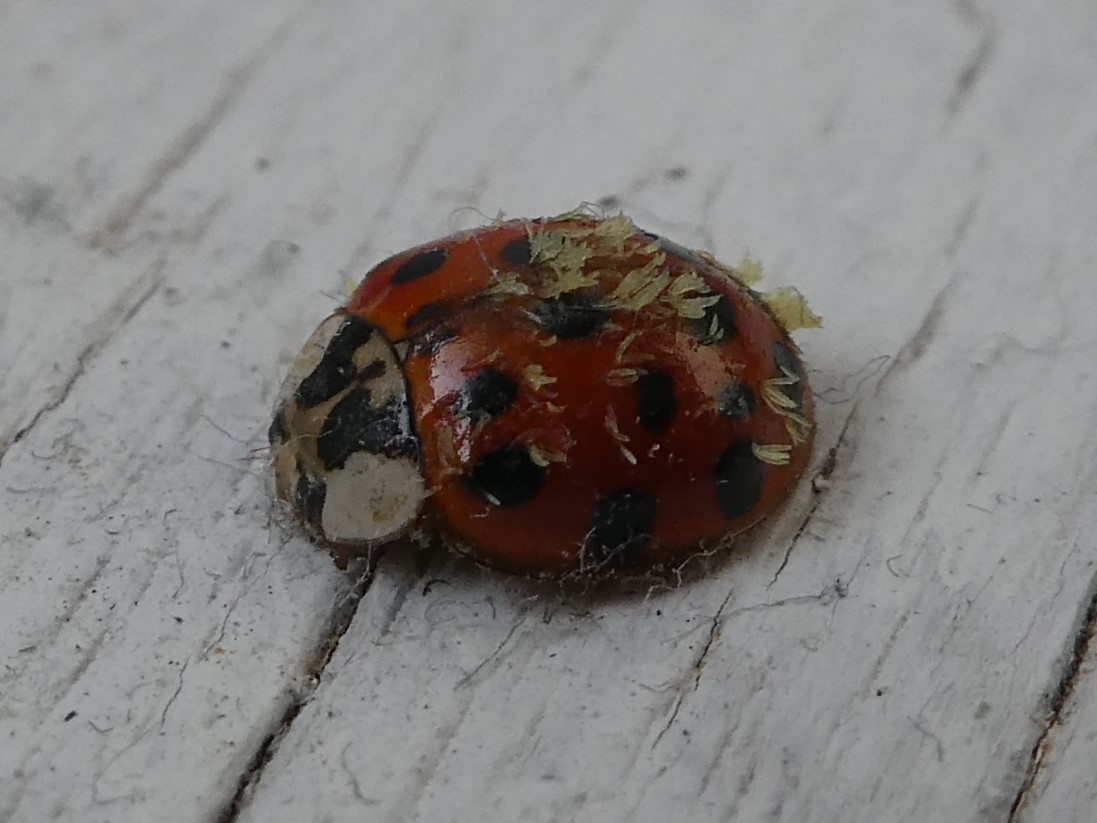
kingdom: Fungi
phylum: Ascomycota
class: Laboulbeniomycetes
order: Laboulbeniales
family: Laboulbeniaceae
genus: Hesperomyces
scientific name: Hesperomyces harmoniae
